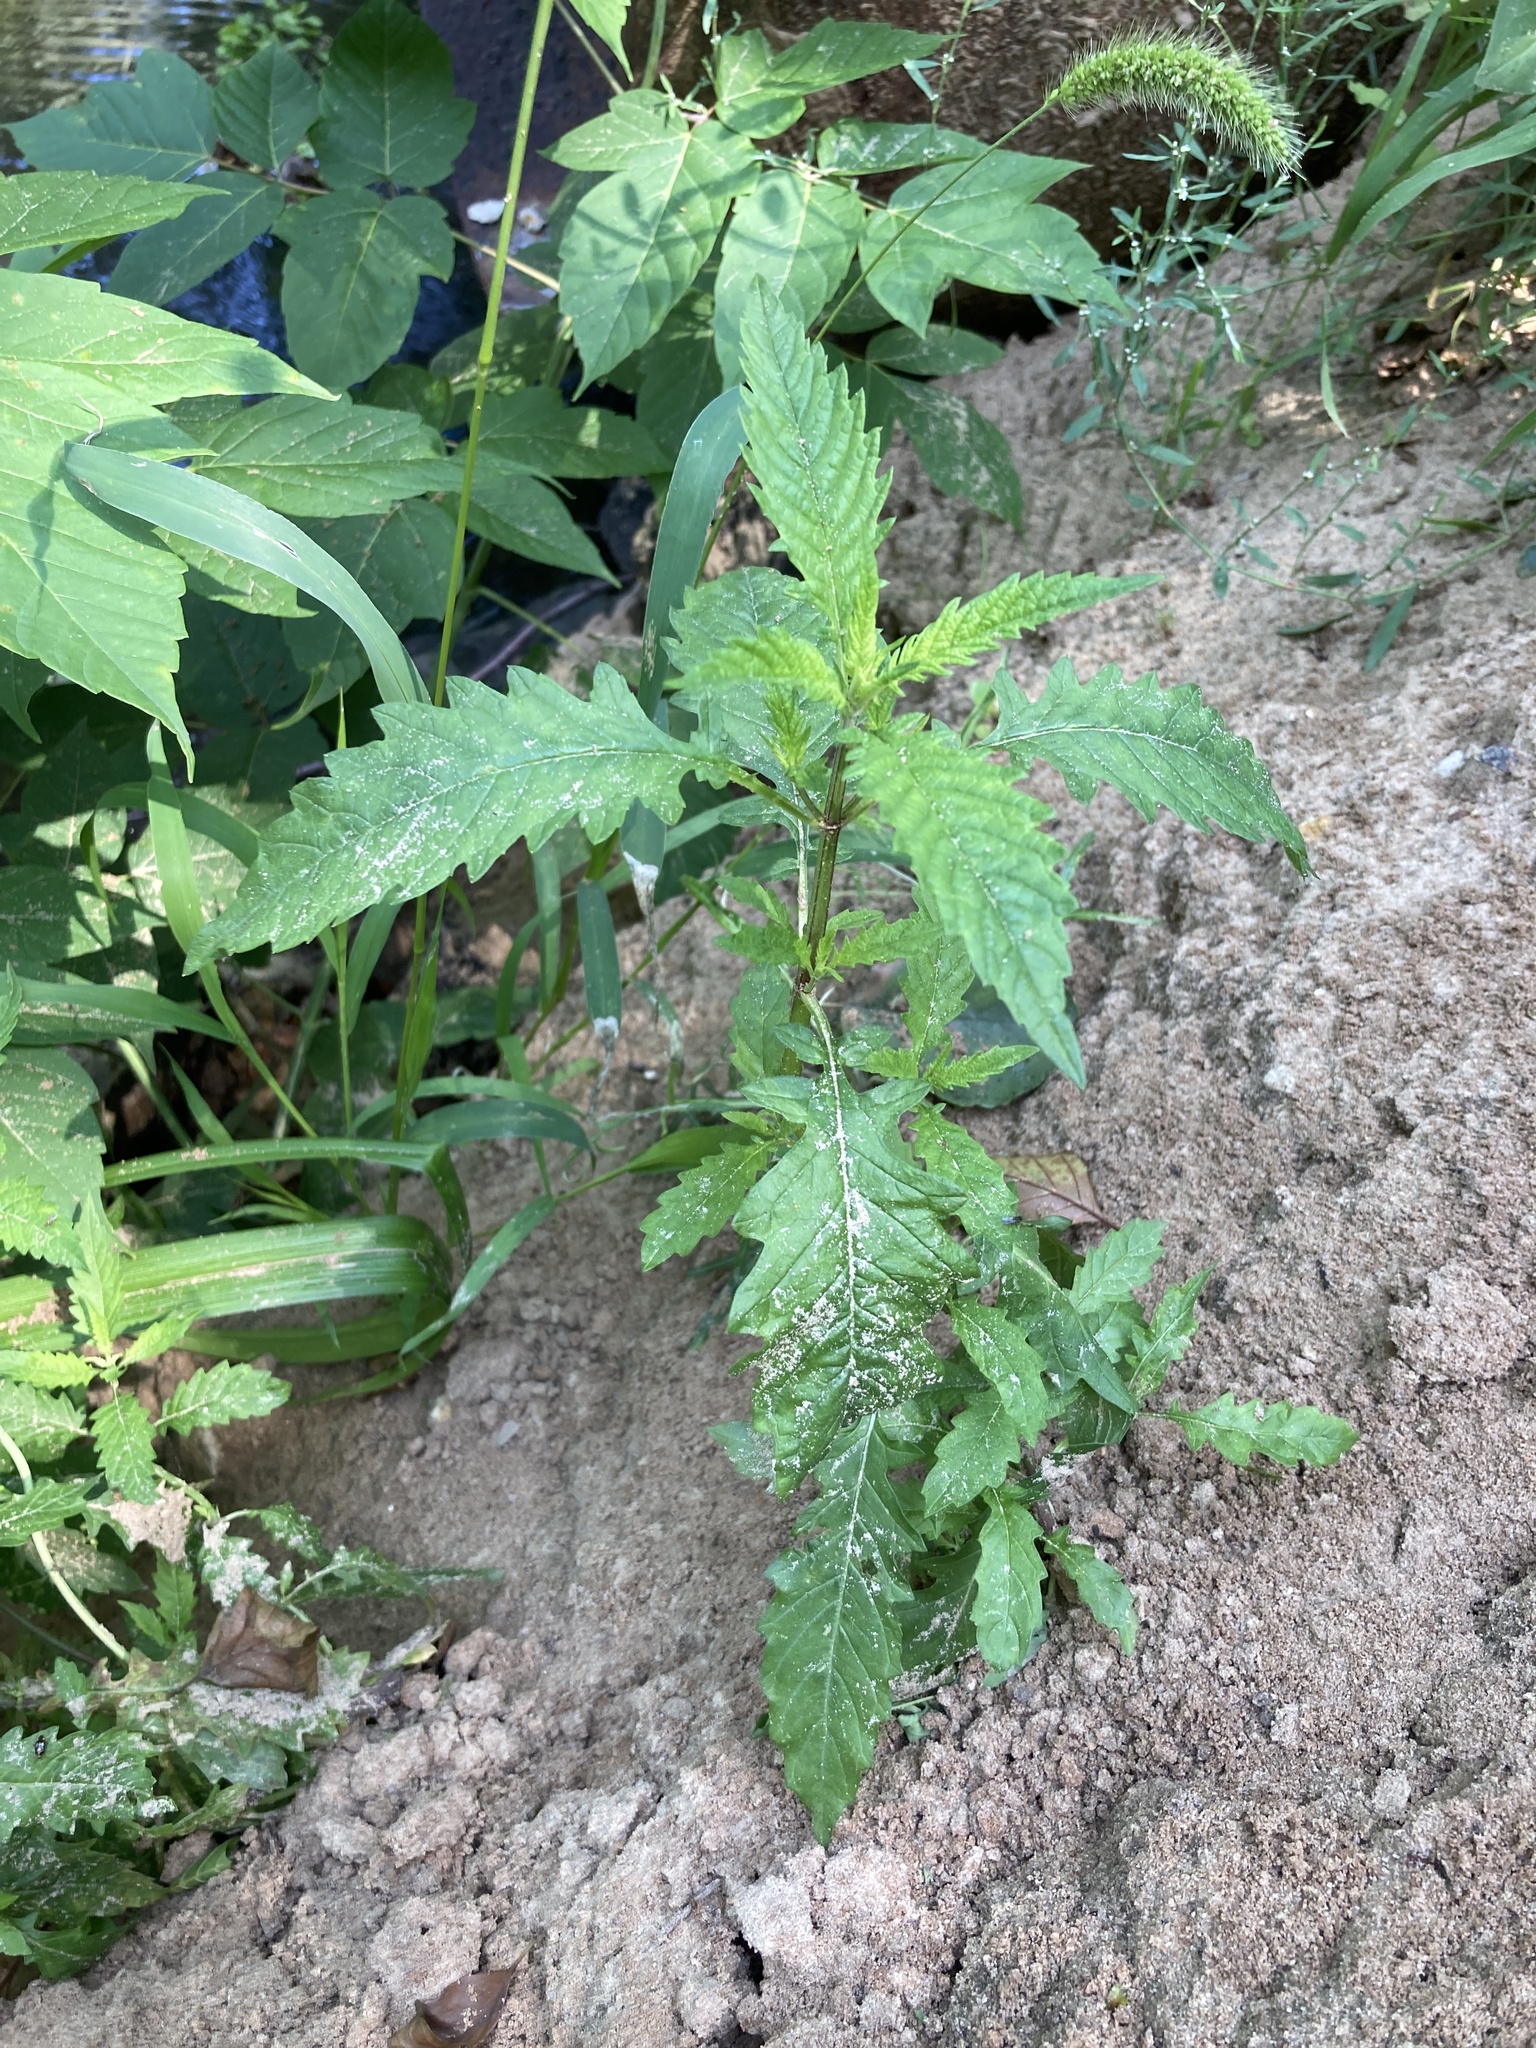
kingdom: Plantae
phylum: Tracheophyta
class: Magnoliopsida
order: Lamiales
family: Lamiaceae
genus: Lycopus
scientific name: Lycopus europaeus
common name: European bugleweed
